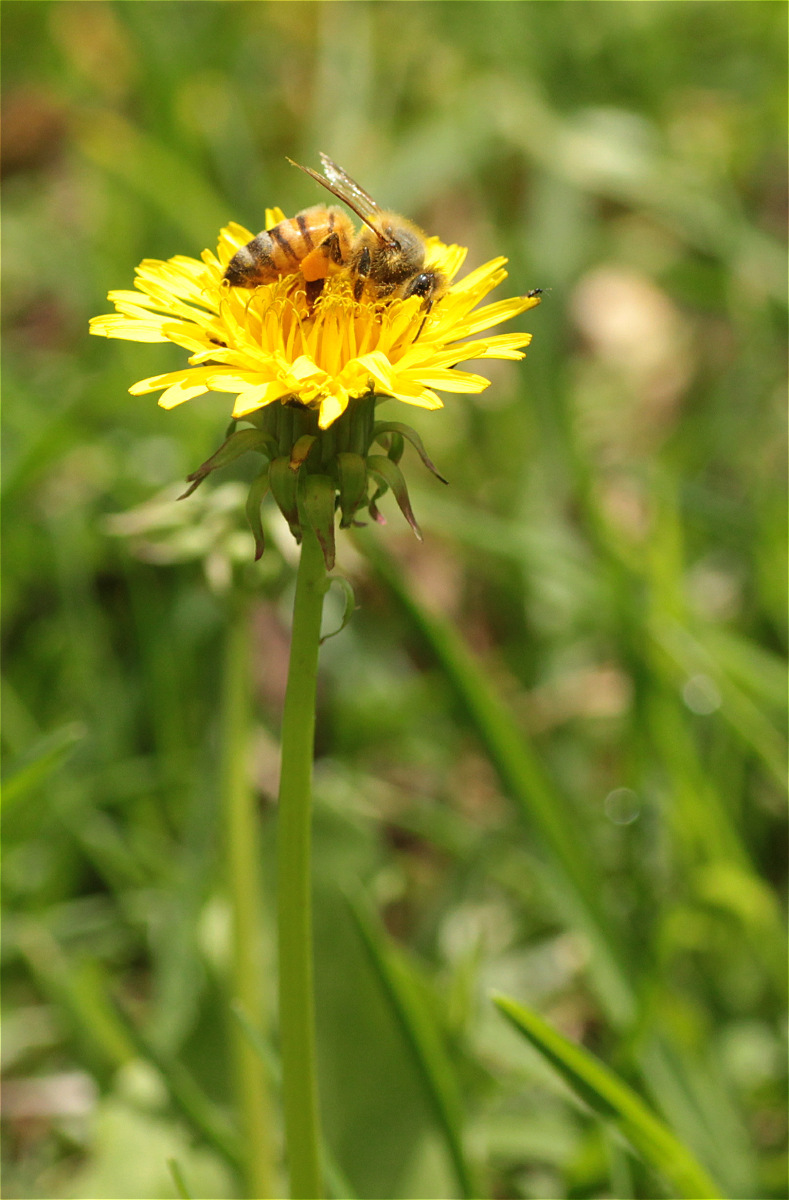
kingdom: Animalia
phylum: Arthropoda
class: Insecta
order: Hymenoptera
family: Apidae
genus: Apis
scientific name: Apis mellifera
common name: Honey bee
